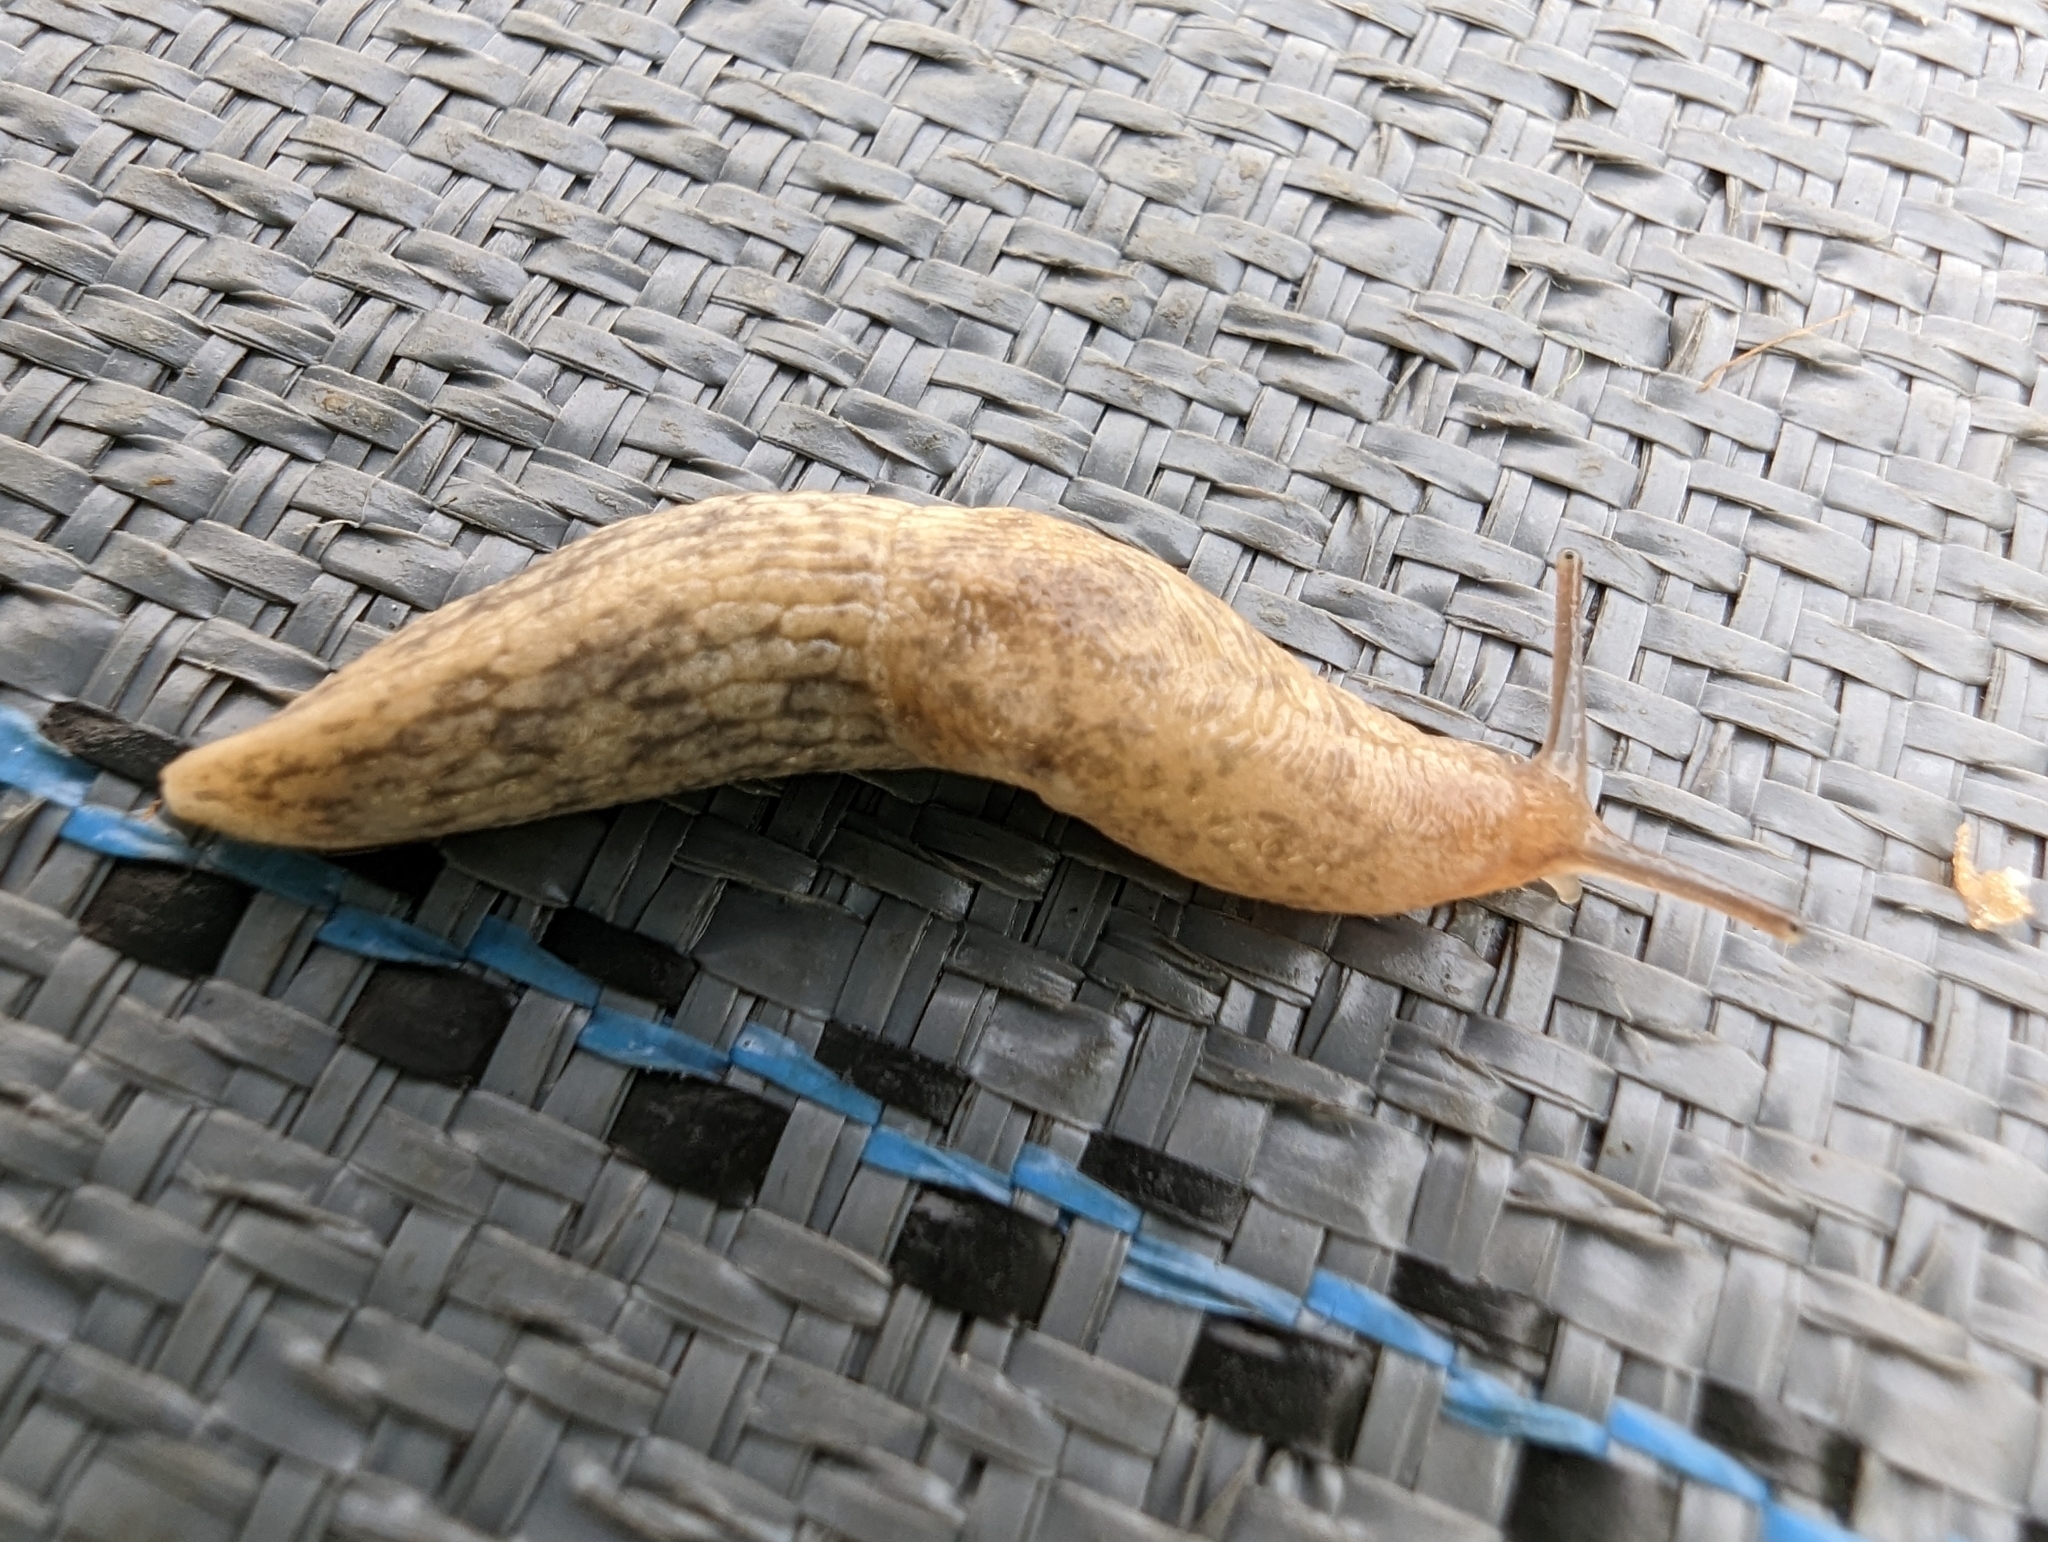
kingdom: Animalia
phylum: Mollusca
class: Gastropoda
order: Stylommatophora
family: Agriolimacidae
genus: Deroceras
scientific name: Deroceras reticulatum
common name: Gray field slug
